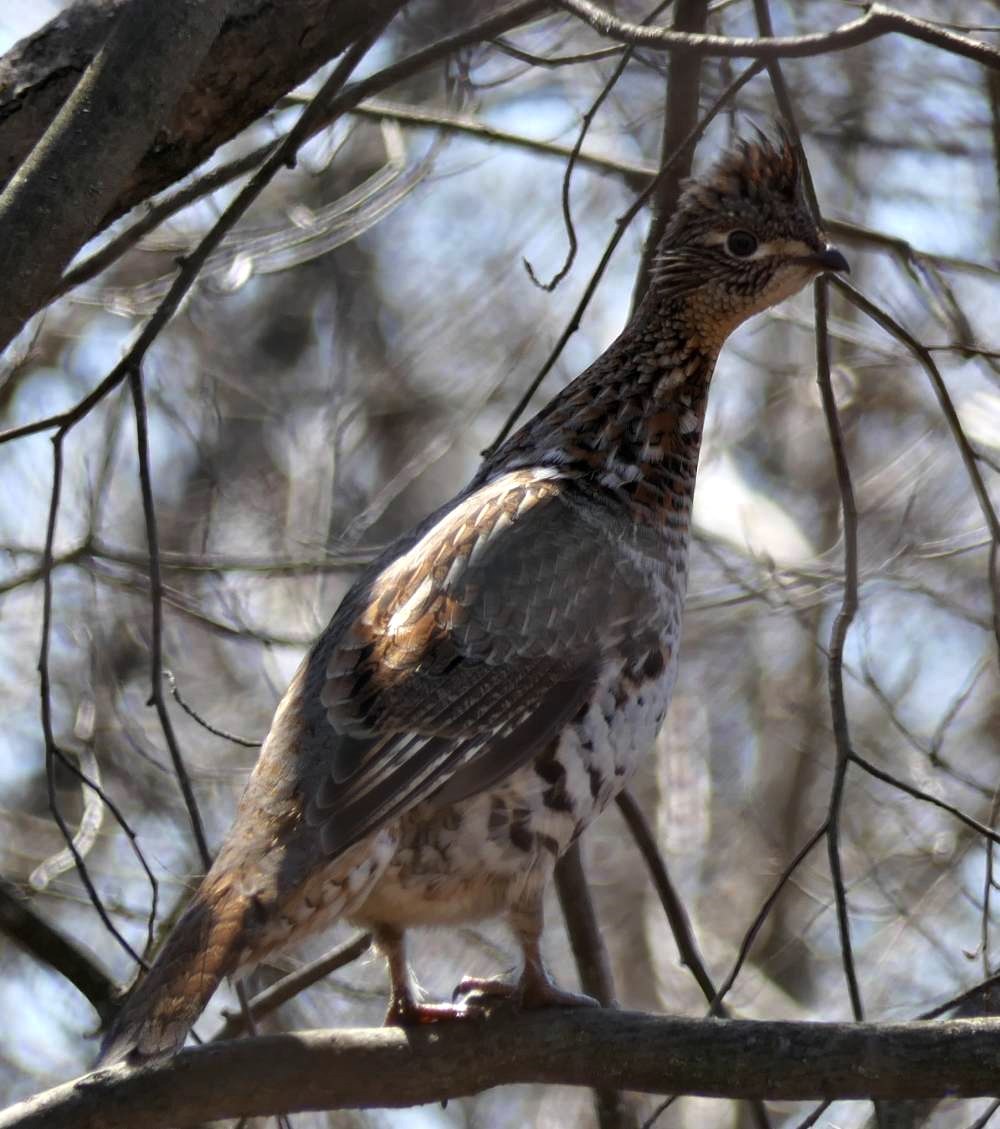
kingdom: Animalia
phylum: Chordata
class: Aves
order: Galliformes
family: Phasianidae
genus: Bonasa
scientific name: Bonasa umbellus
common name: Ruffed grouse
